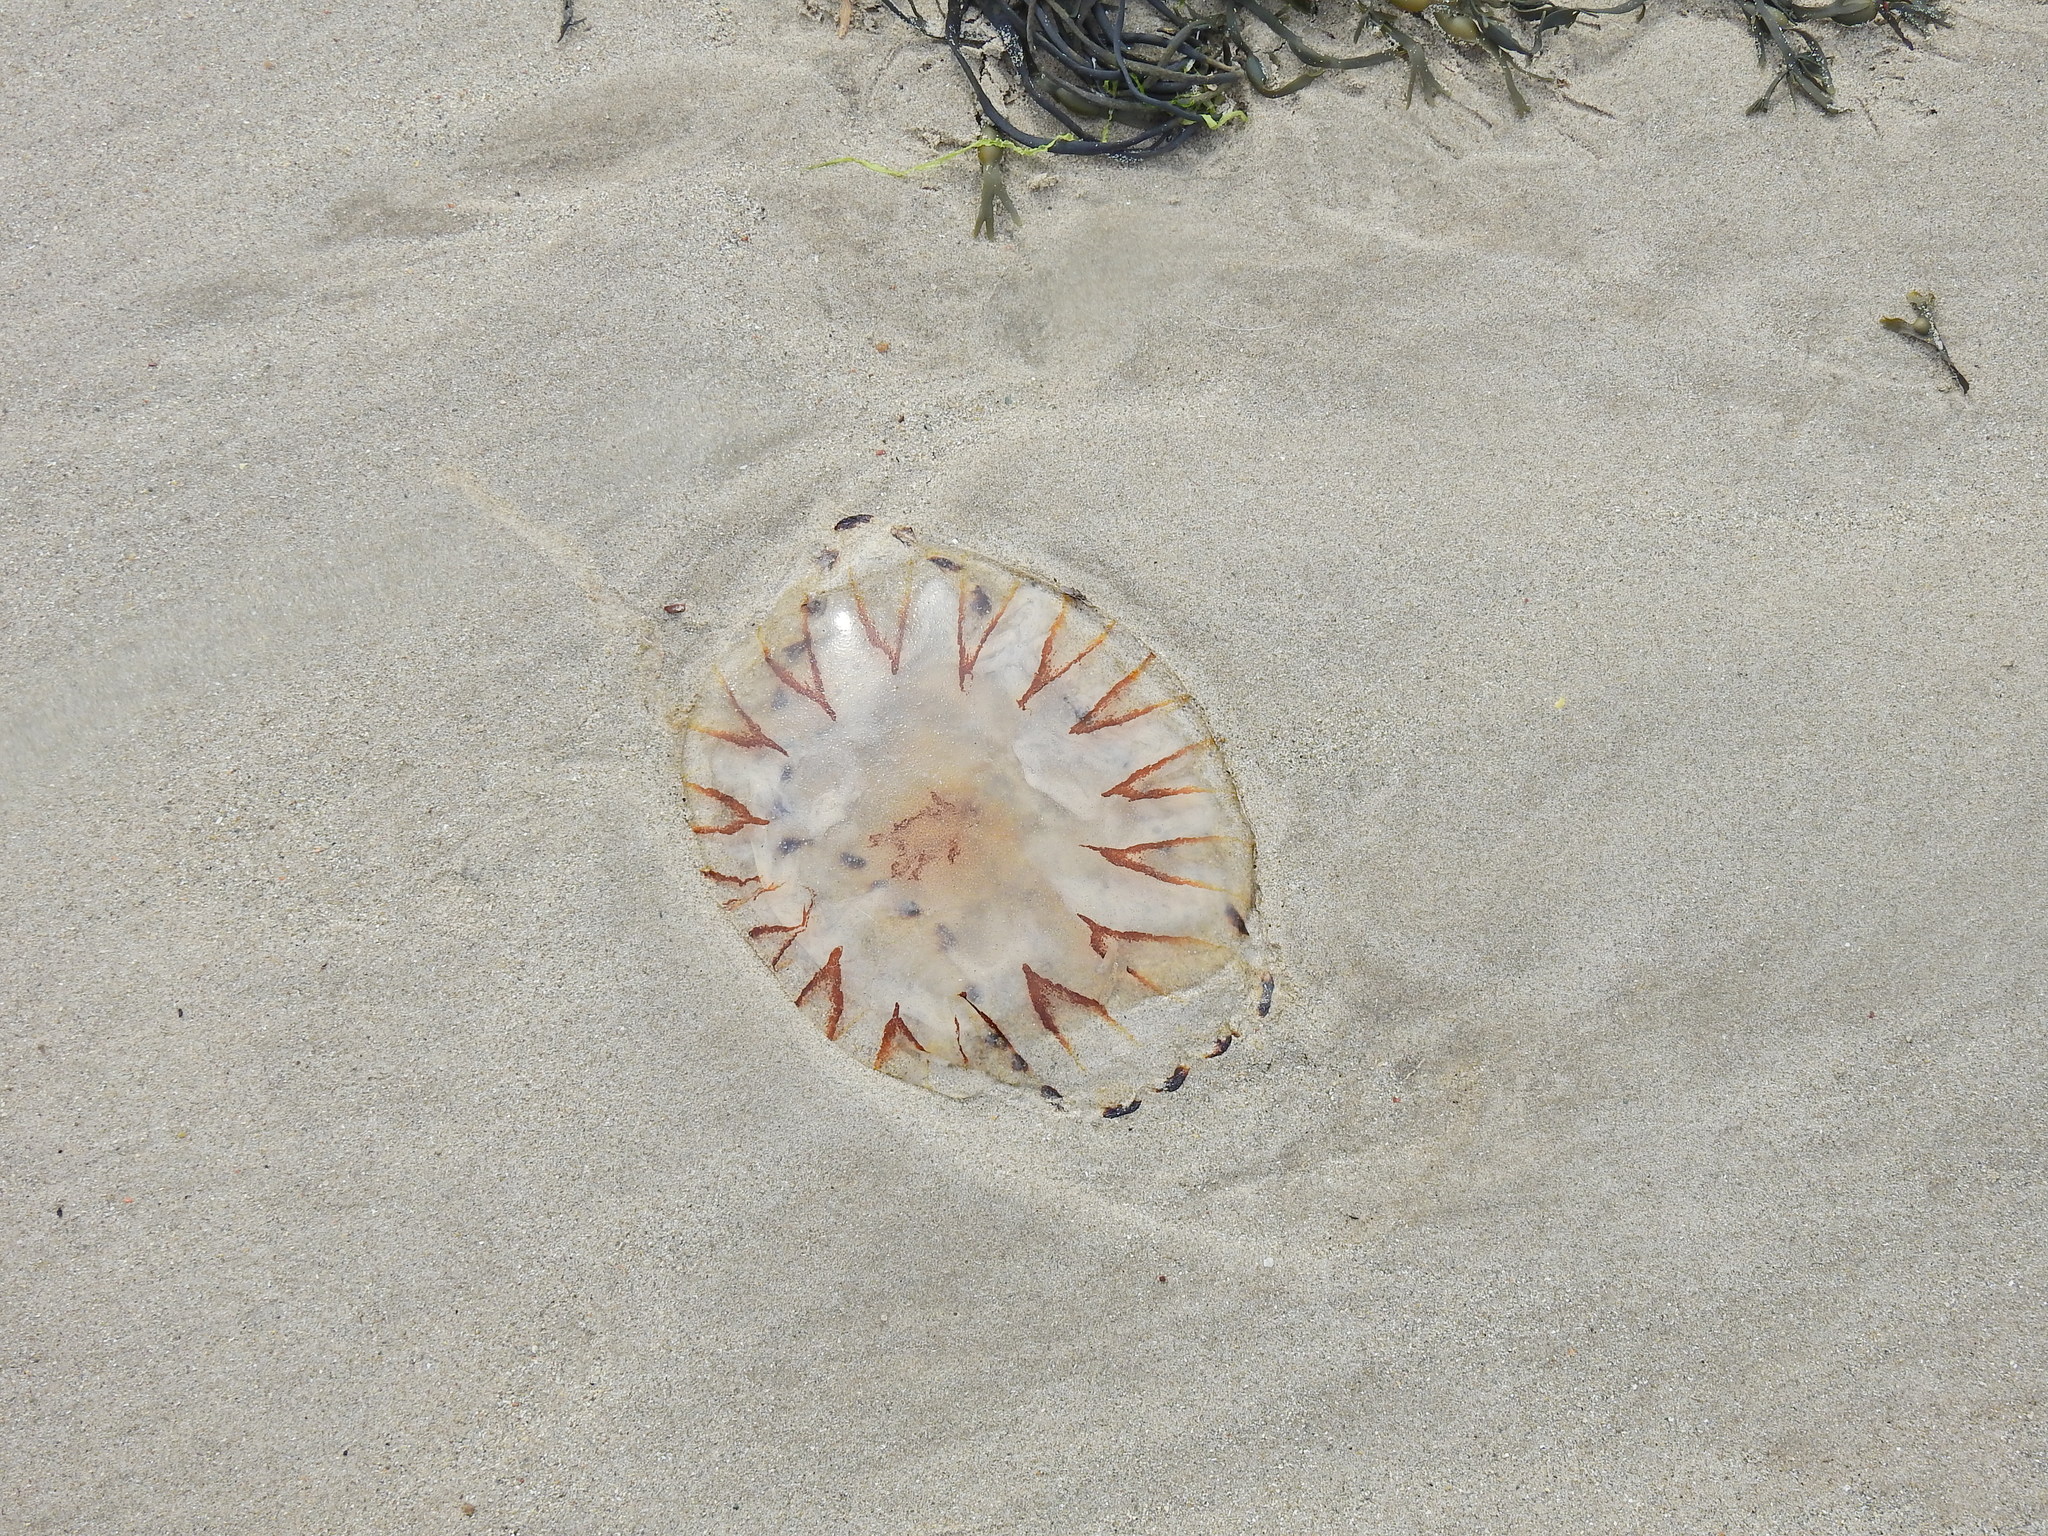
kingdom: Animalia
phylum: Cnidaria
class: Scyphozoa
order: Semaeostomeae
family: Pelagiidae
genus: Chrysaora
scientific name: Chrysaora hysoscella
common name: Compass jellyfish
